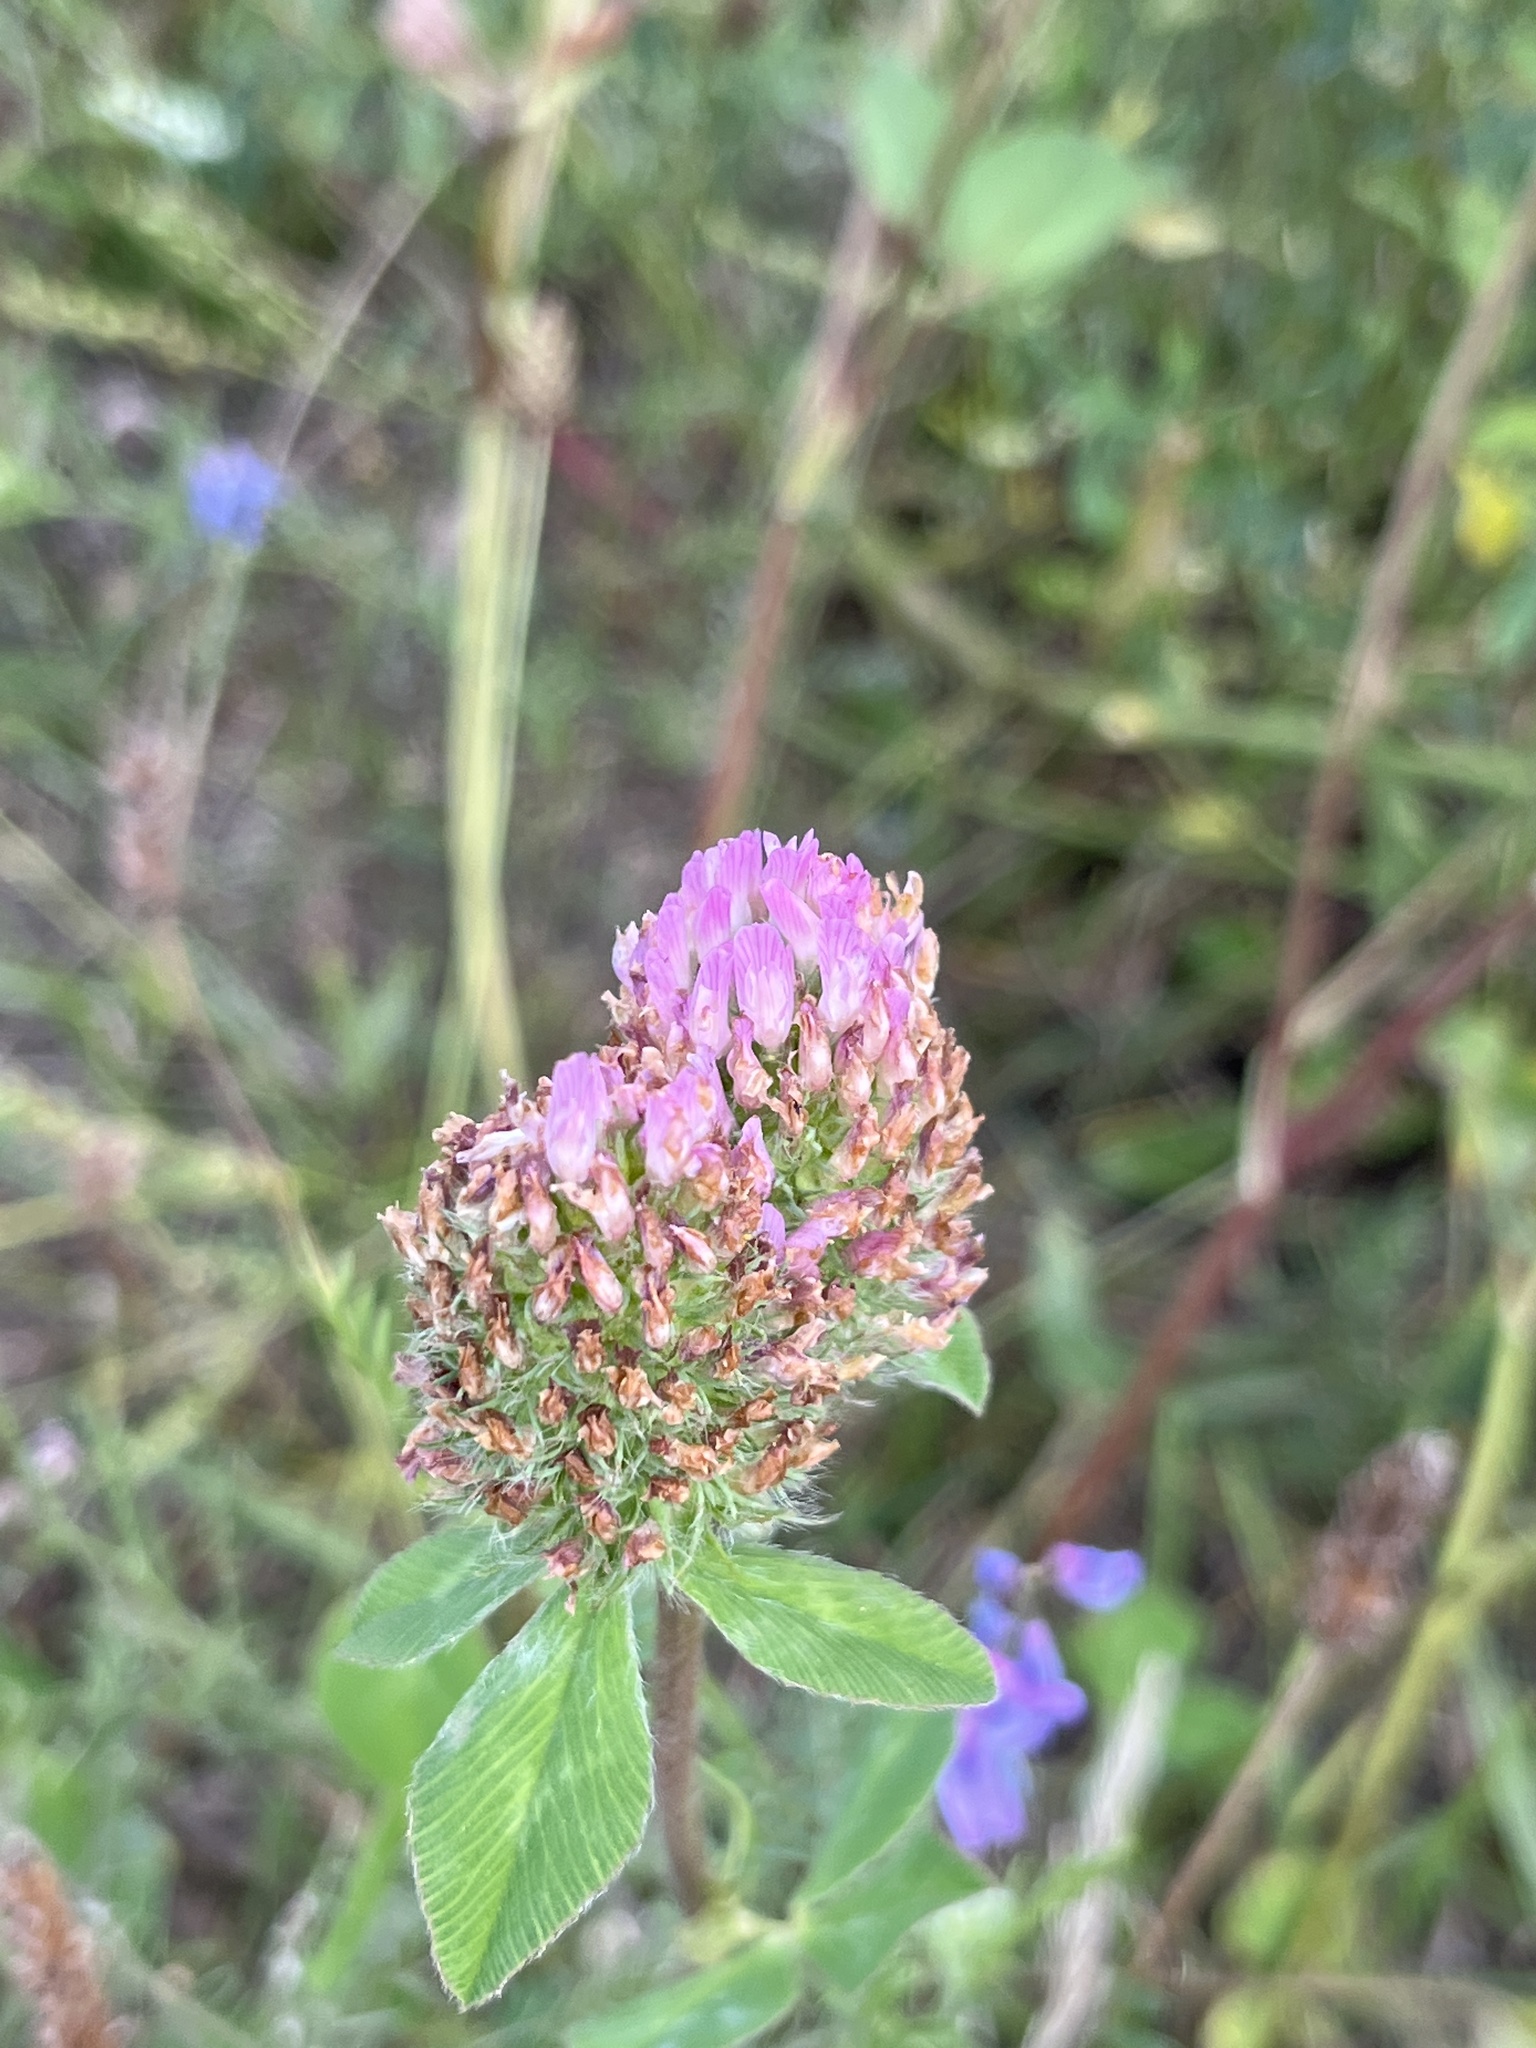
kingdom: Plantae
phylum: Tracheophyta
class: Magnoliopsida
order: Fabales
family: Fabaceae
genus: Trifolium
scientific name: Trifolium pratense
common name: Red clover
